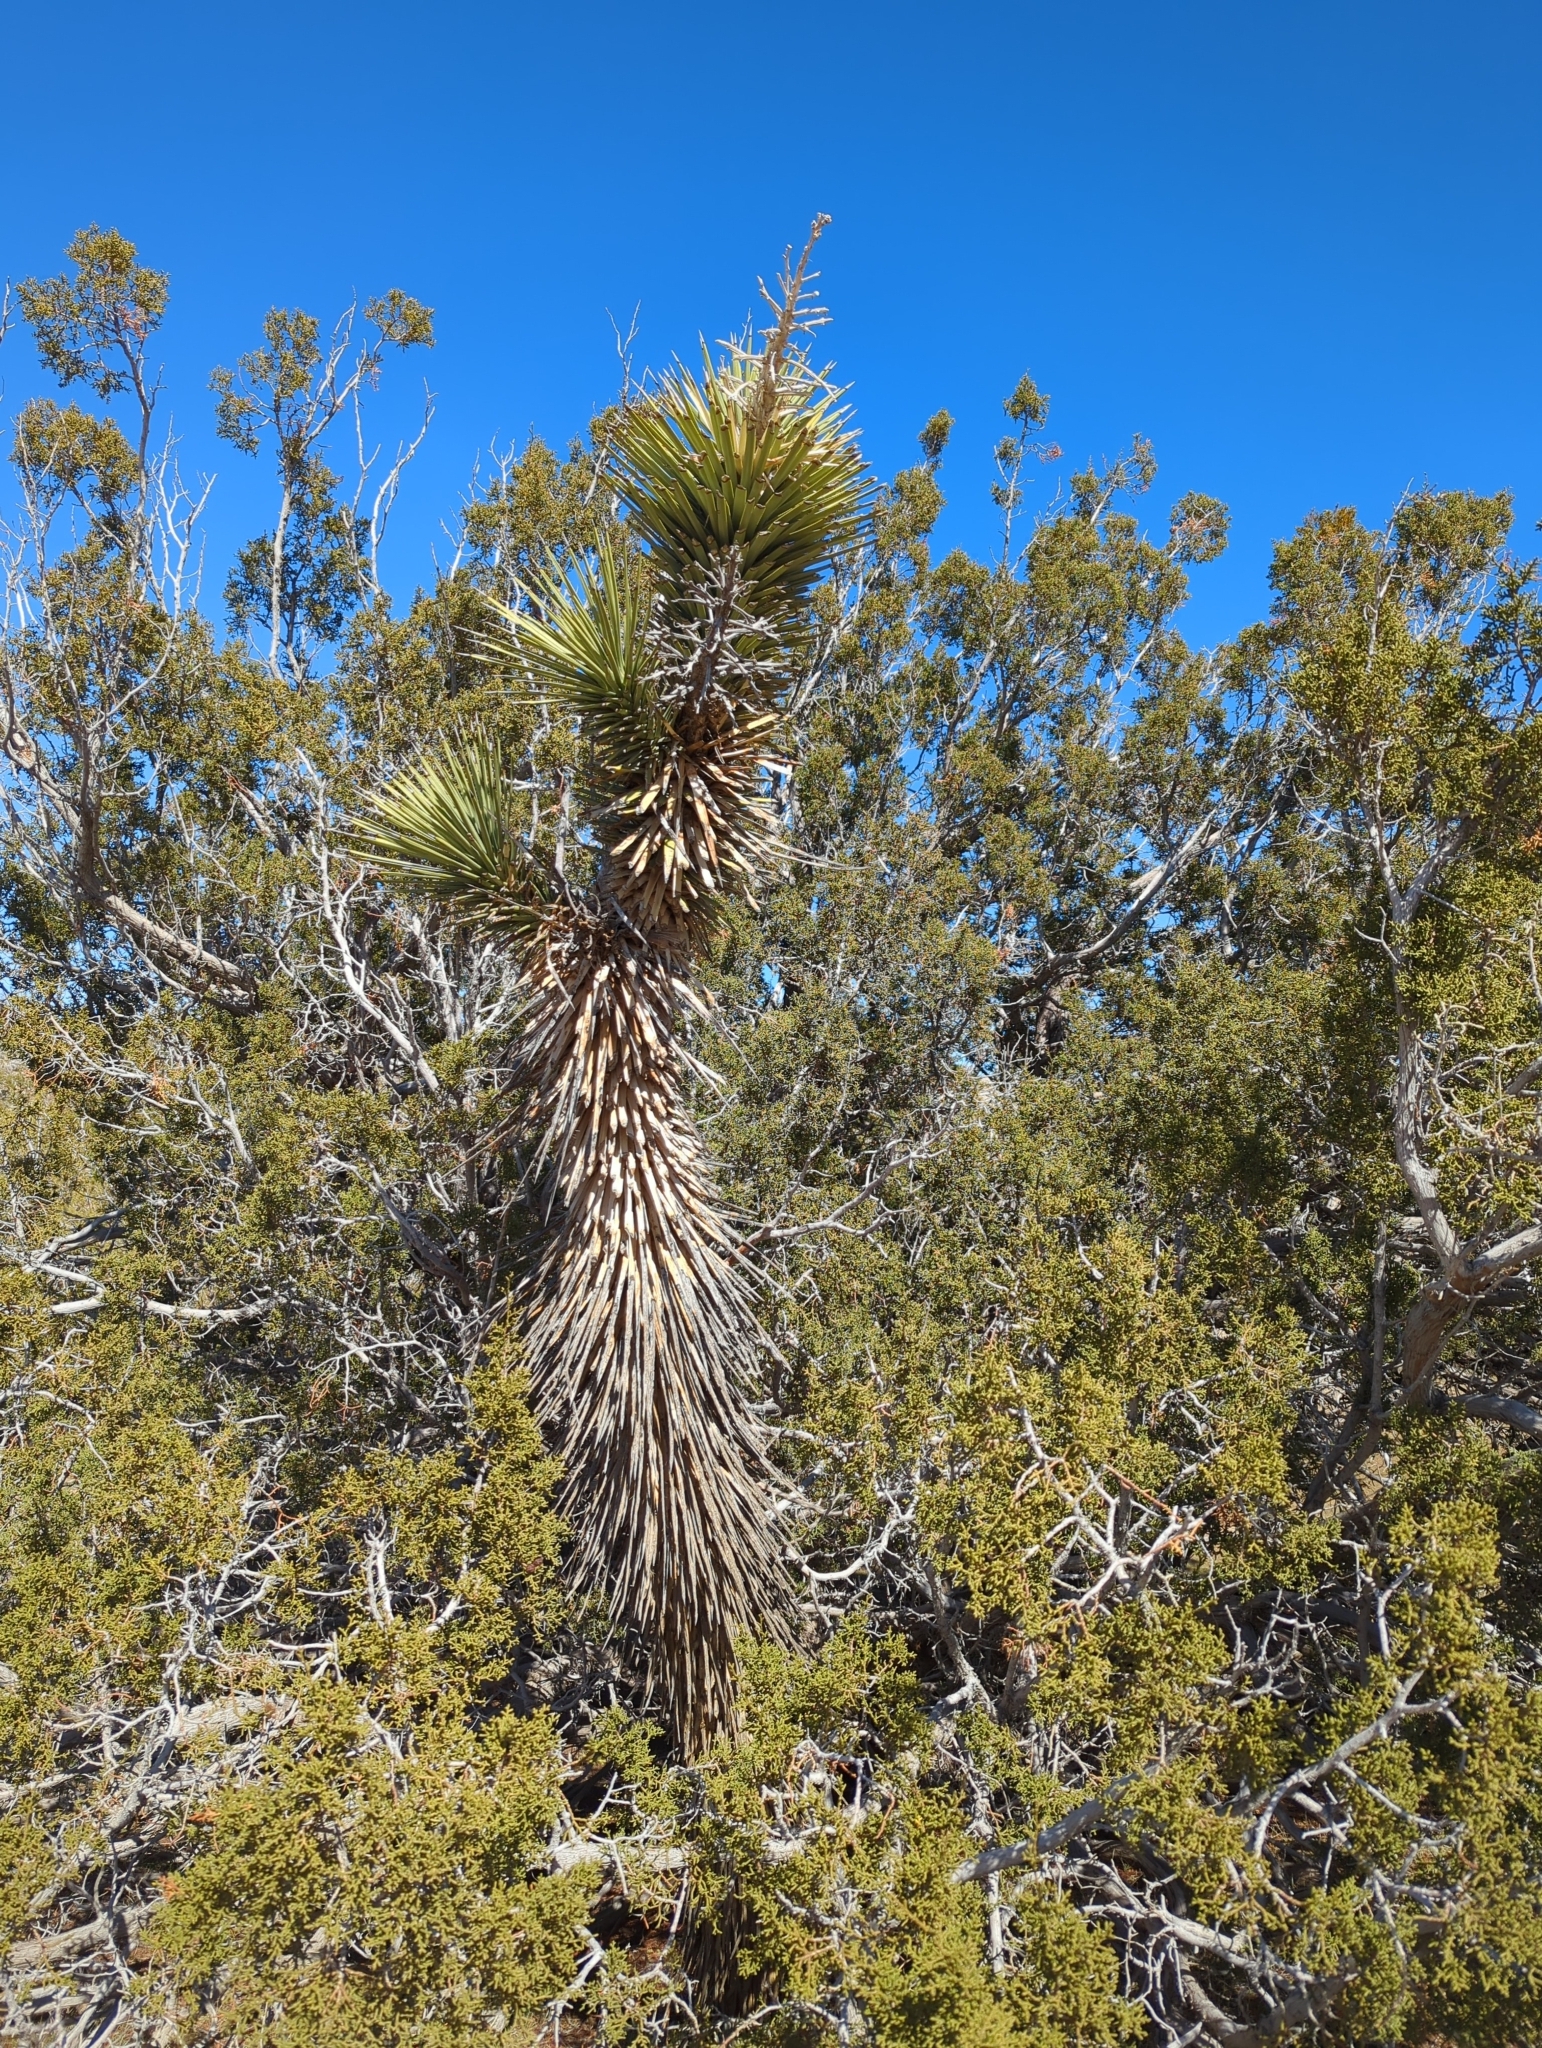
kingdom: Plantae
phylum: Tracheophyta
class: Liliopsida
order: Asparagales
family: Asparagaceae
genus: Yucca
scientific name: Yucca brevifolia
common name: Joshua tree
